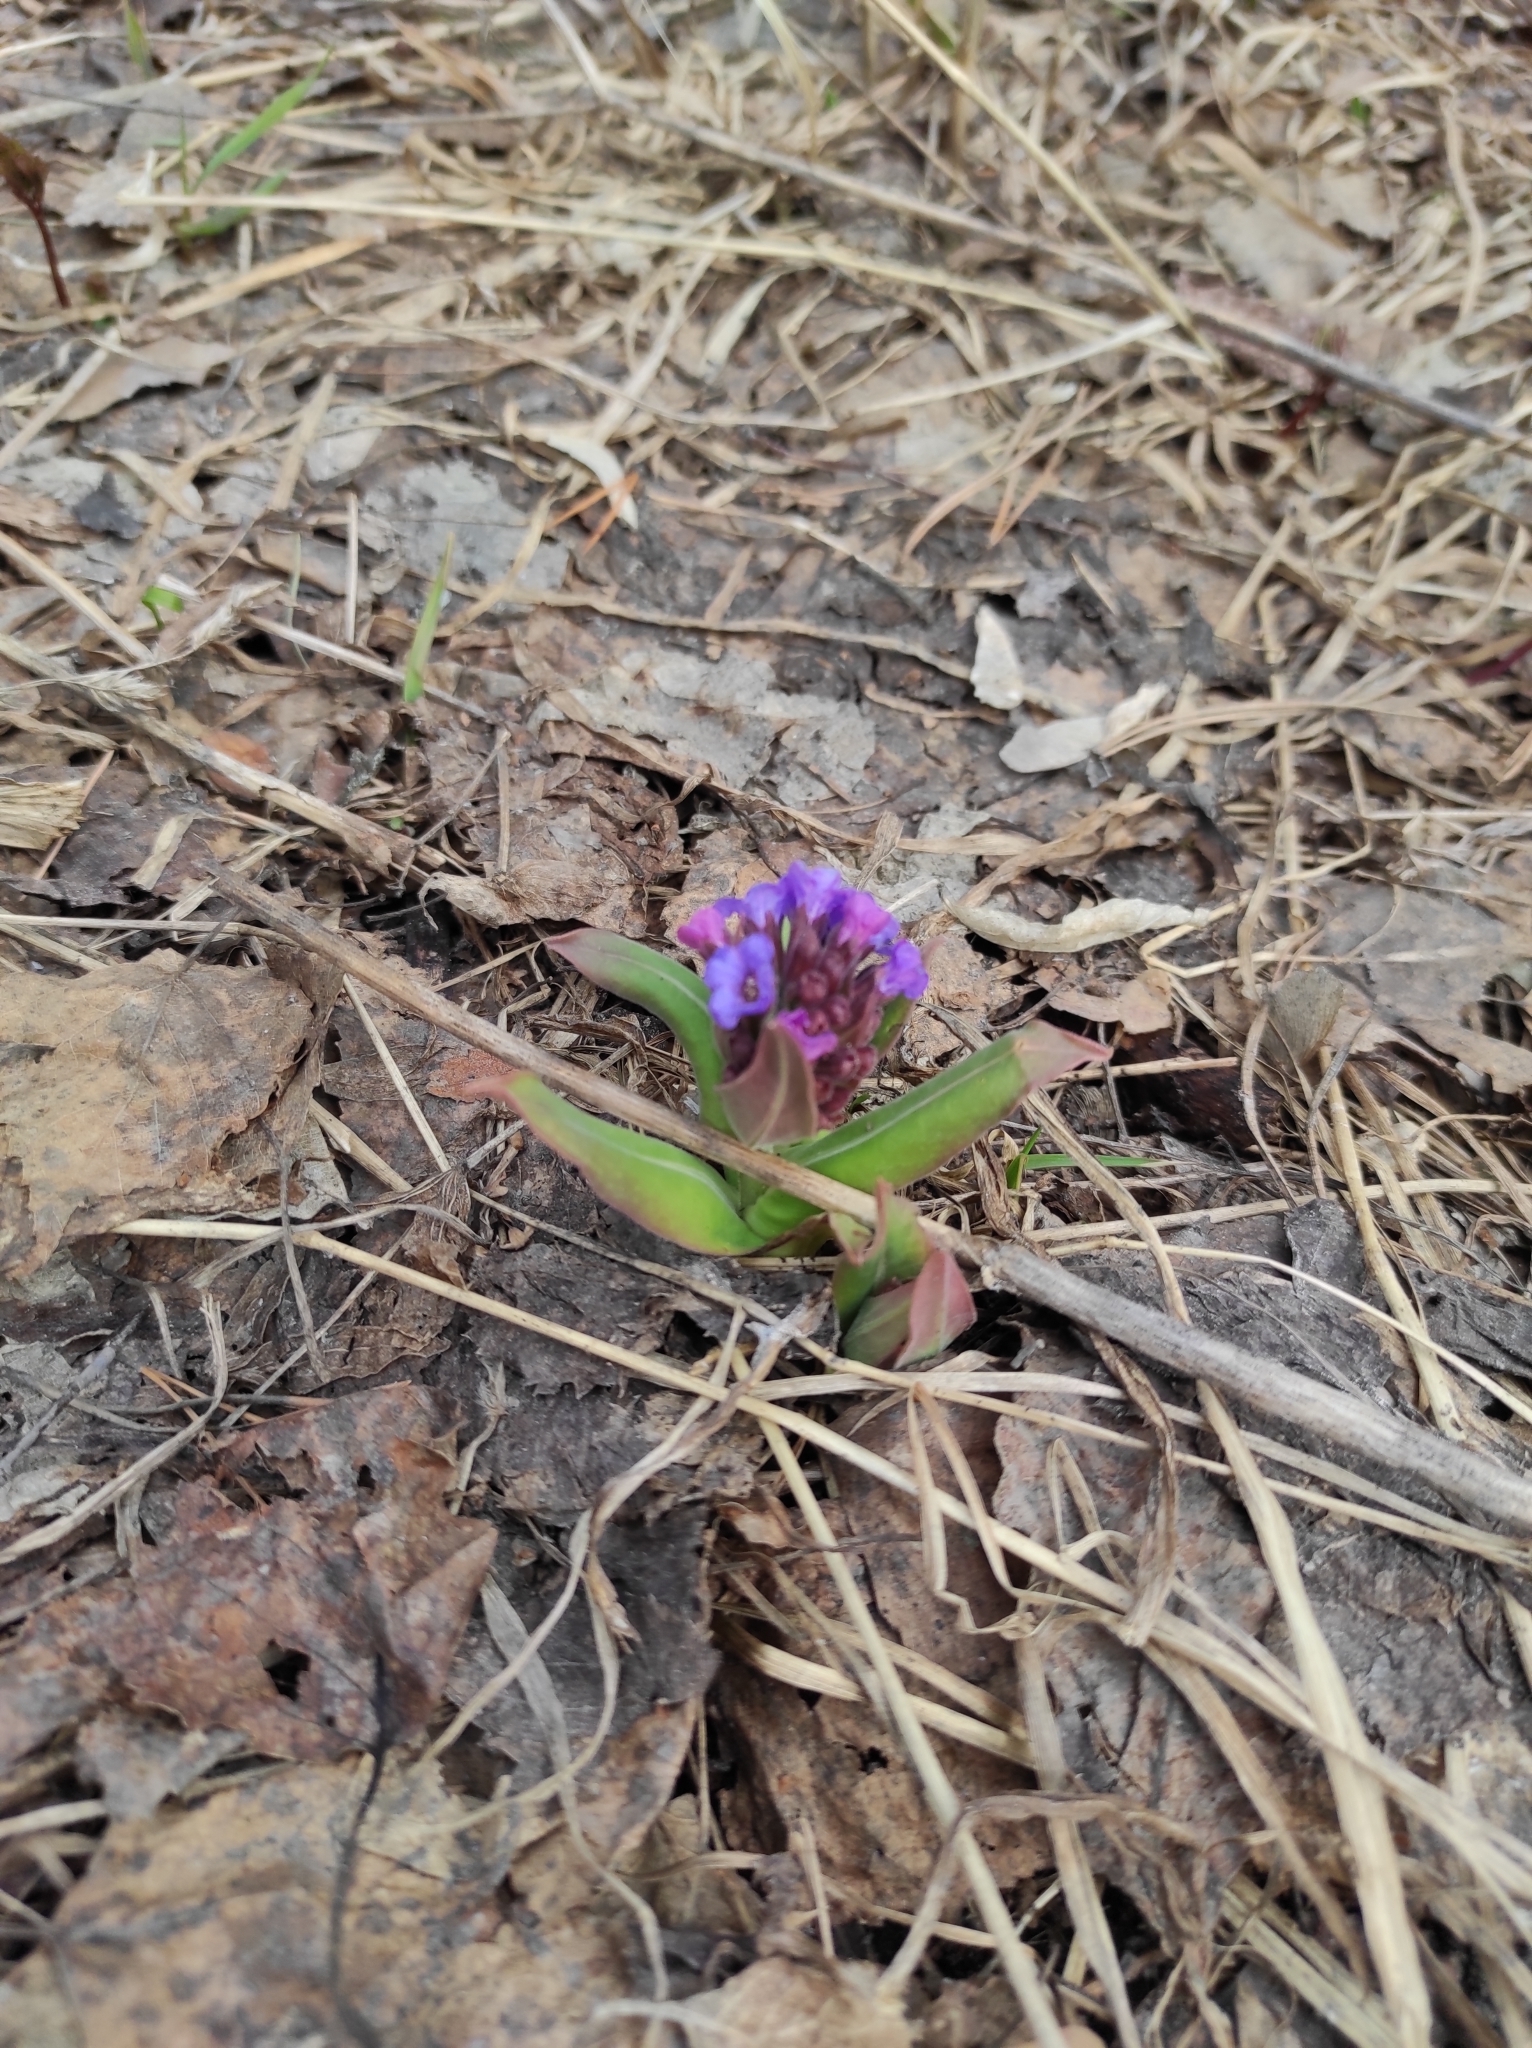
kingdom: Plantae
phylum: Tracheophyta
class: Magnoliopsida
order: Boraginales
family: Boraginaceae
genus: Pulmonaria
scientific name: Pulmonaria mollis
